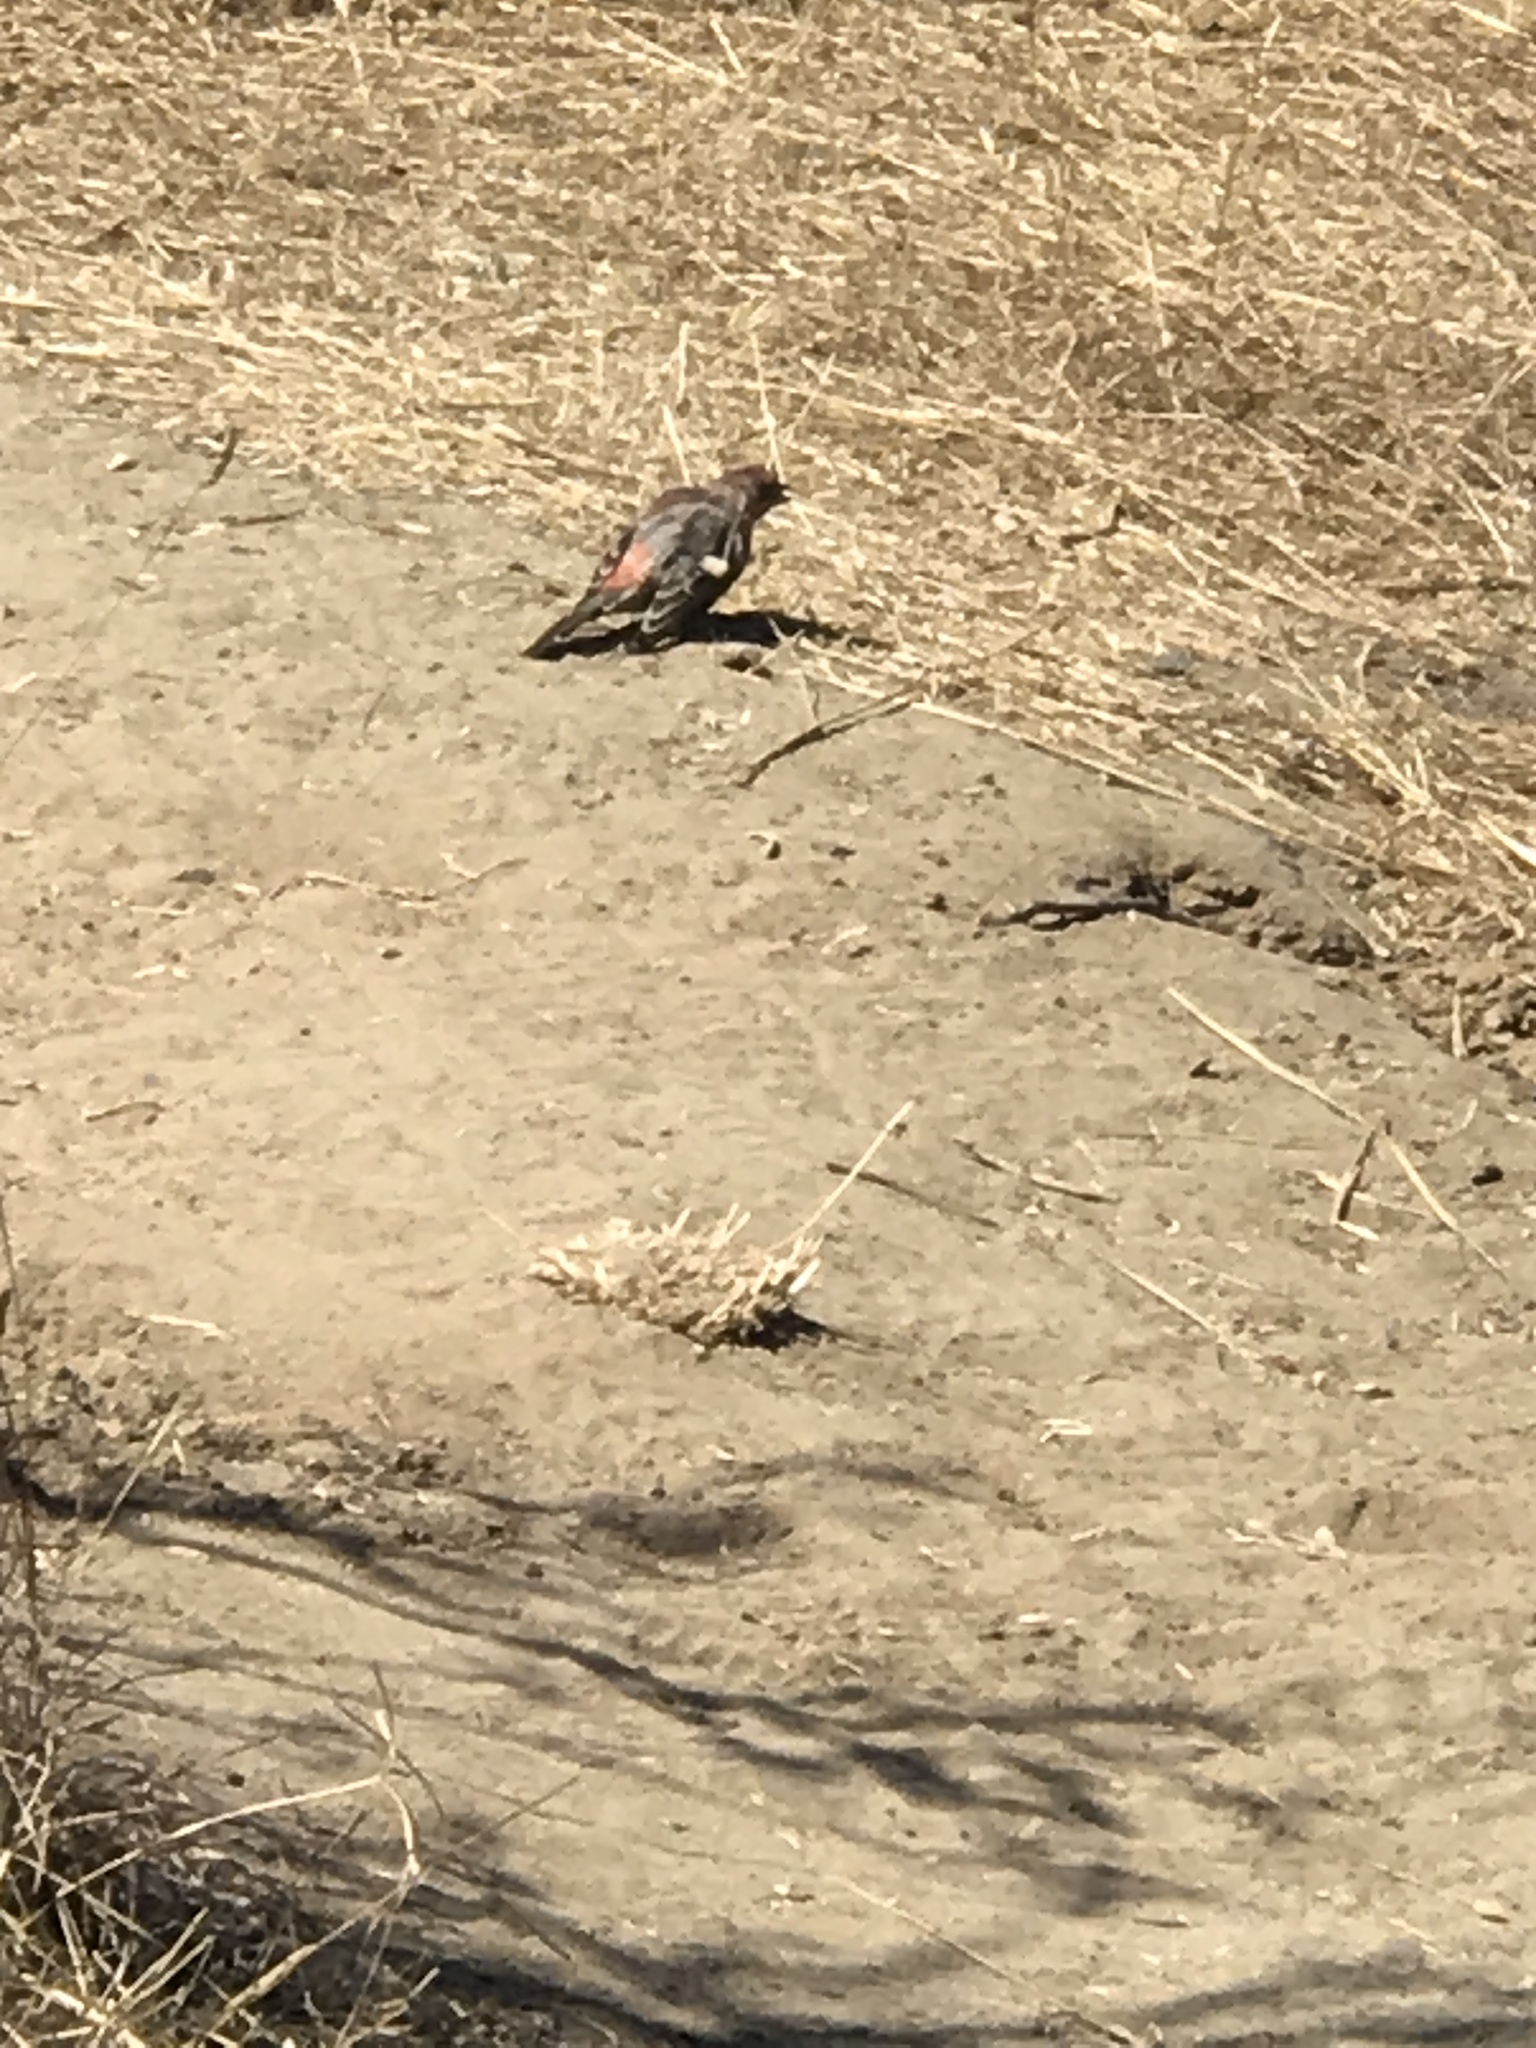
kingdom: Animalia
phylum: Chordata
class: Aves
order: Passeriformes
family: Fringillidae
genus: Haemorhous
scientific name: Haemorhous mexicanus
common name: House finch
